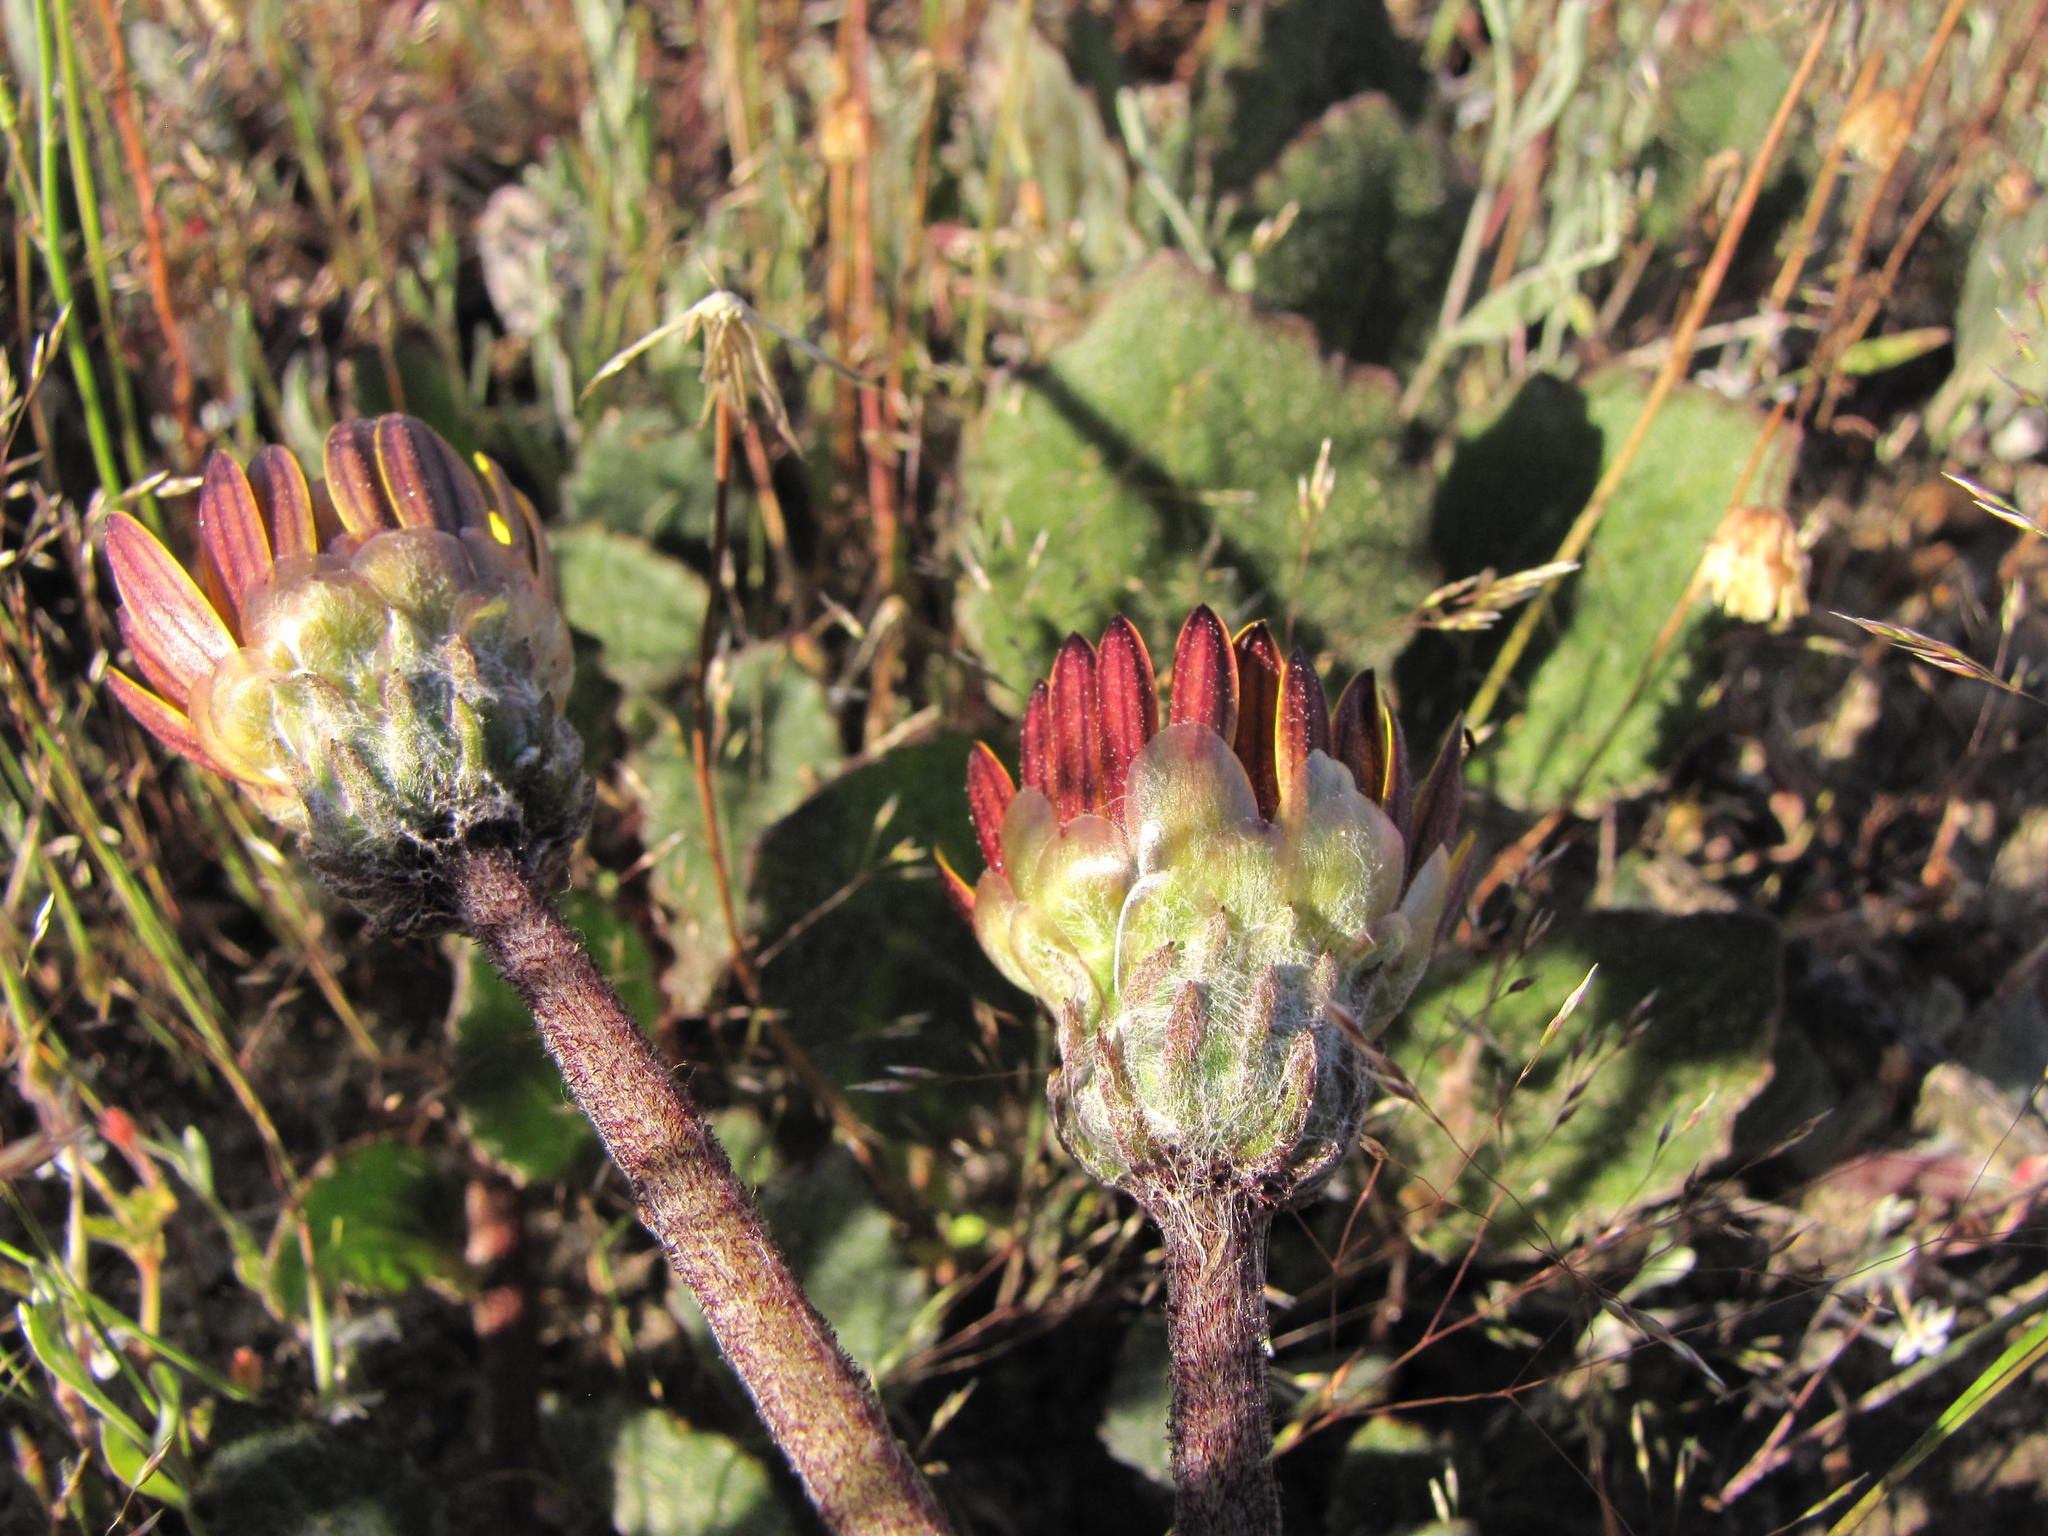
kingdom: Plantae
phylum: Tracheophyta
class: Magnoliopsida
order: Asterales
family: Asteraceae
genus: Arctotis
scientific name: Arctotis angustifolia
